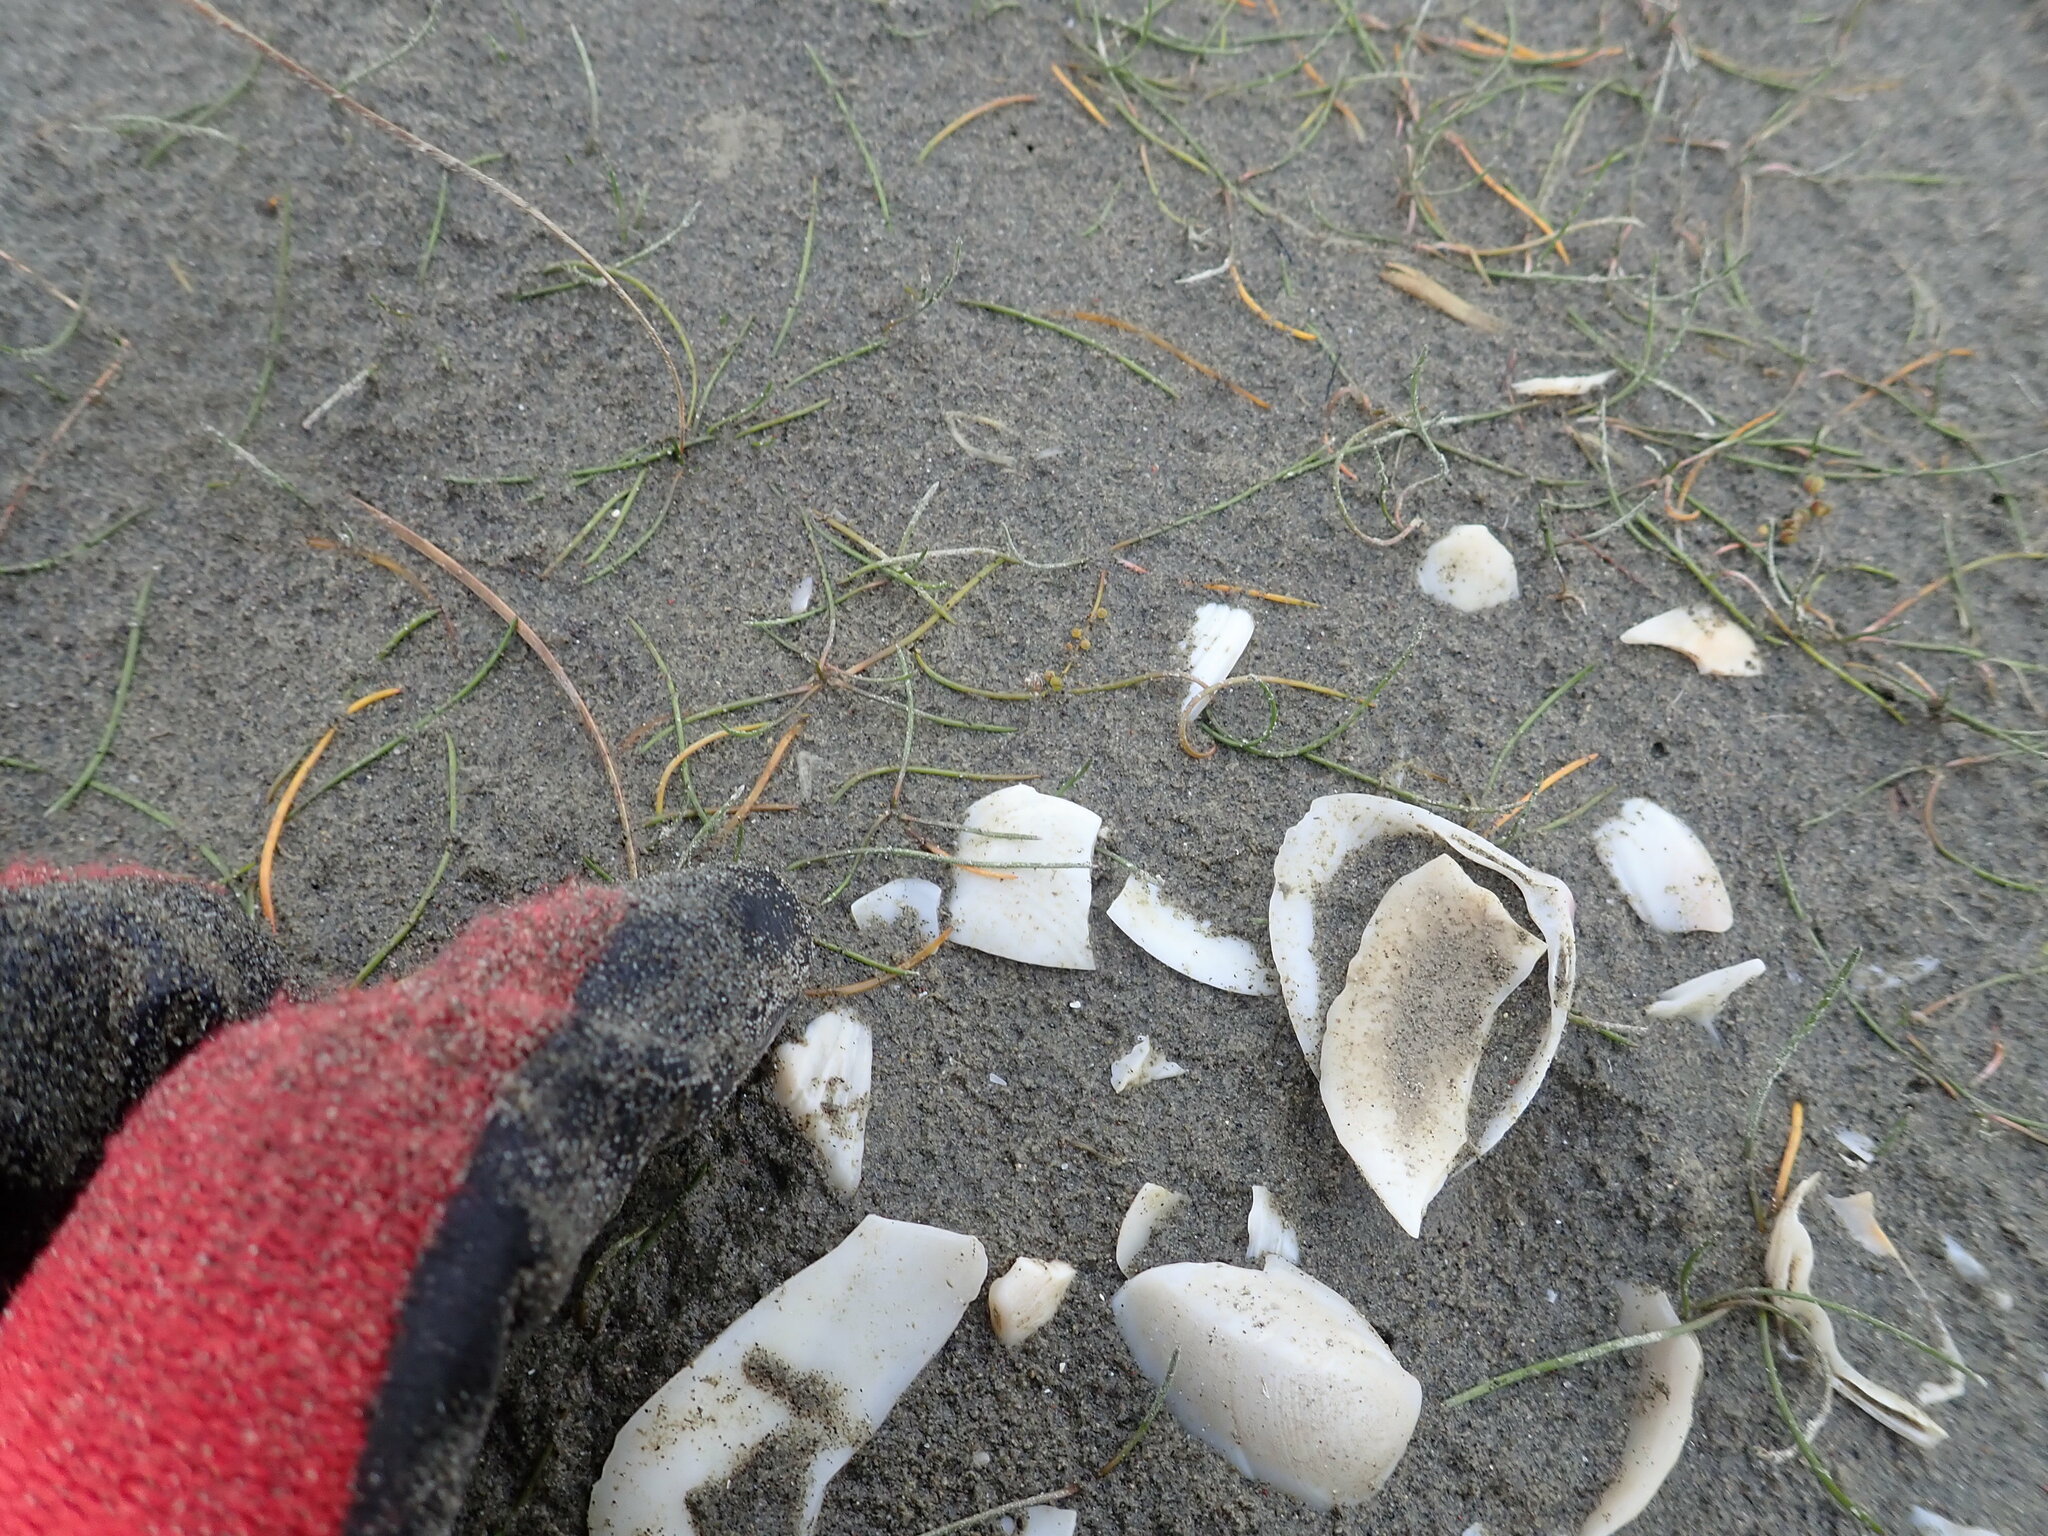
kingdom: Plantae
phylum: Tracheophyta
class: Liliopsida
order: Alismatales
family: Juncaginaceae
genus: Triglochin
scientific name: Triglochin striata
